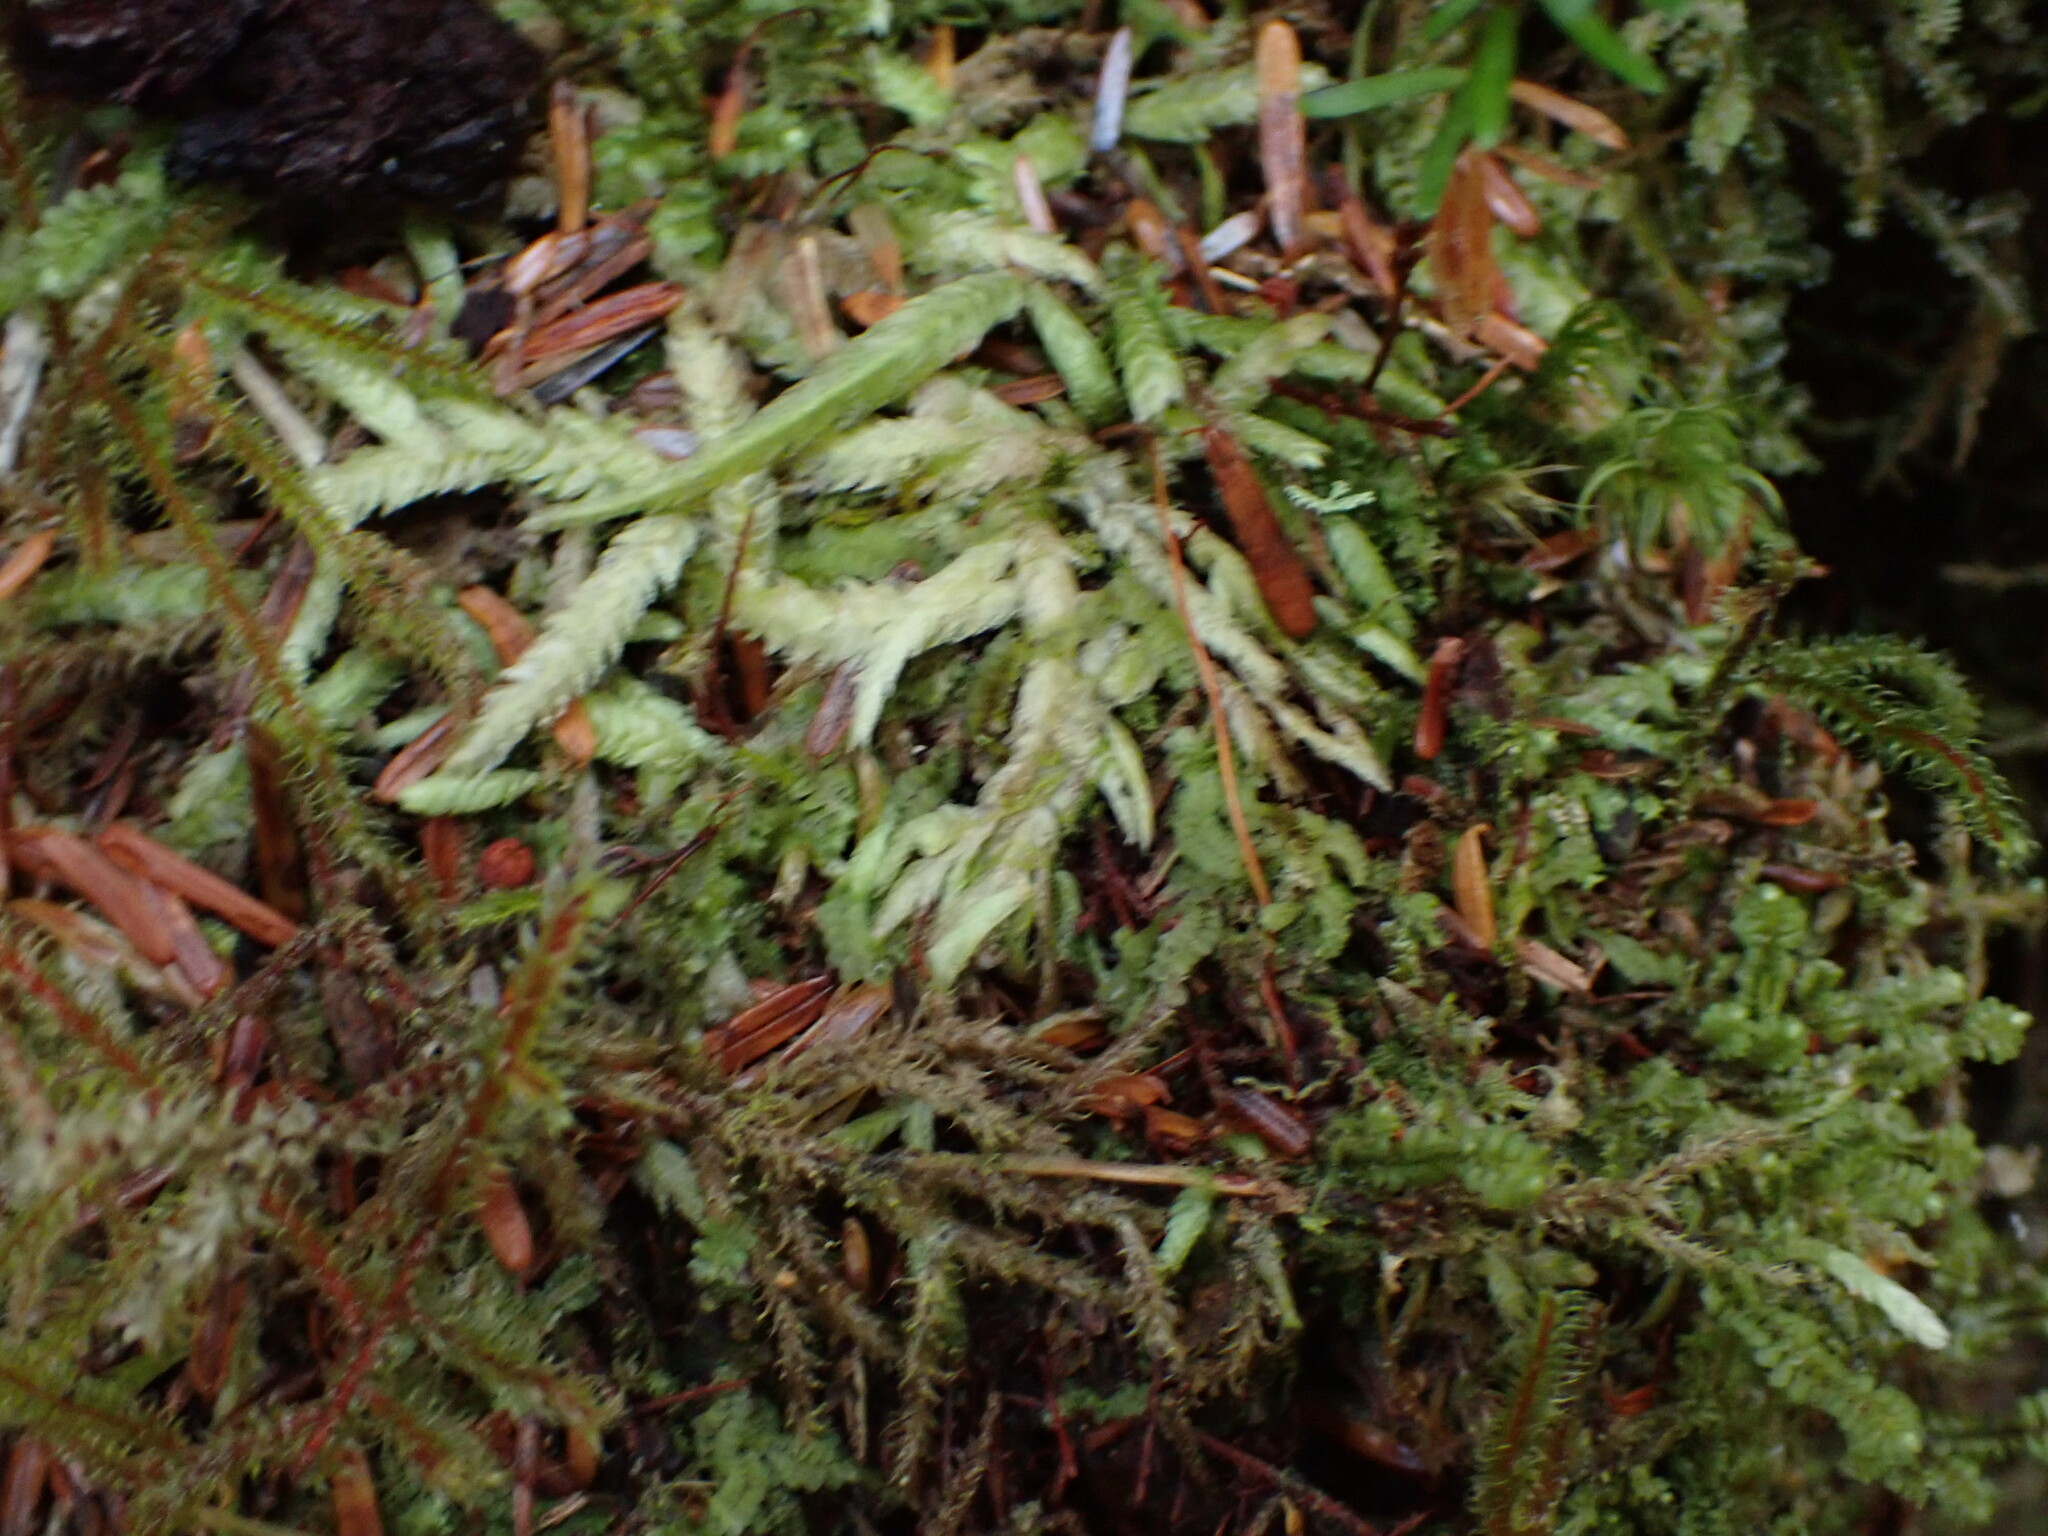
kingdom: Plantae
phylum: Bryophyta
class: Bryopsida
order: Hypnales
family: Plagiotheciaceae
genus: Plagiothecium
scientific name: Plagiothecium undulatum
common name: Waved silk-moss
